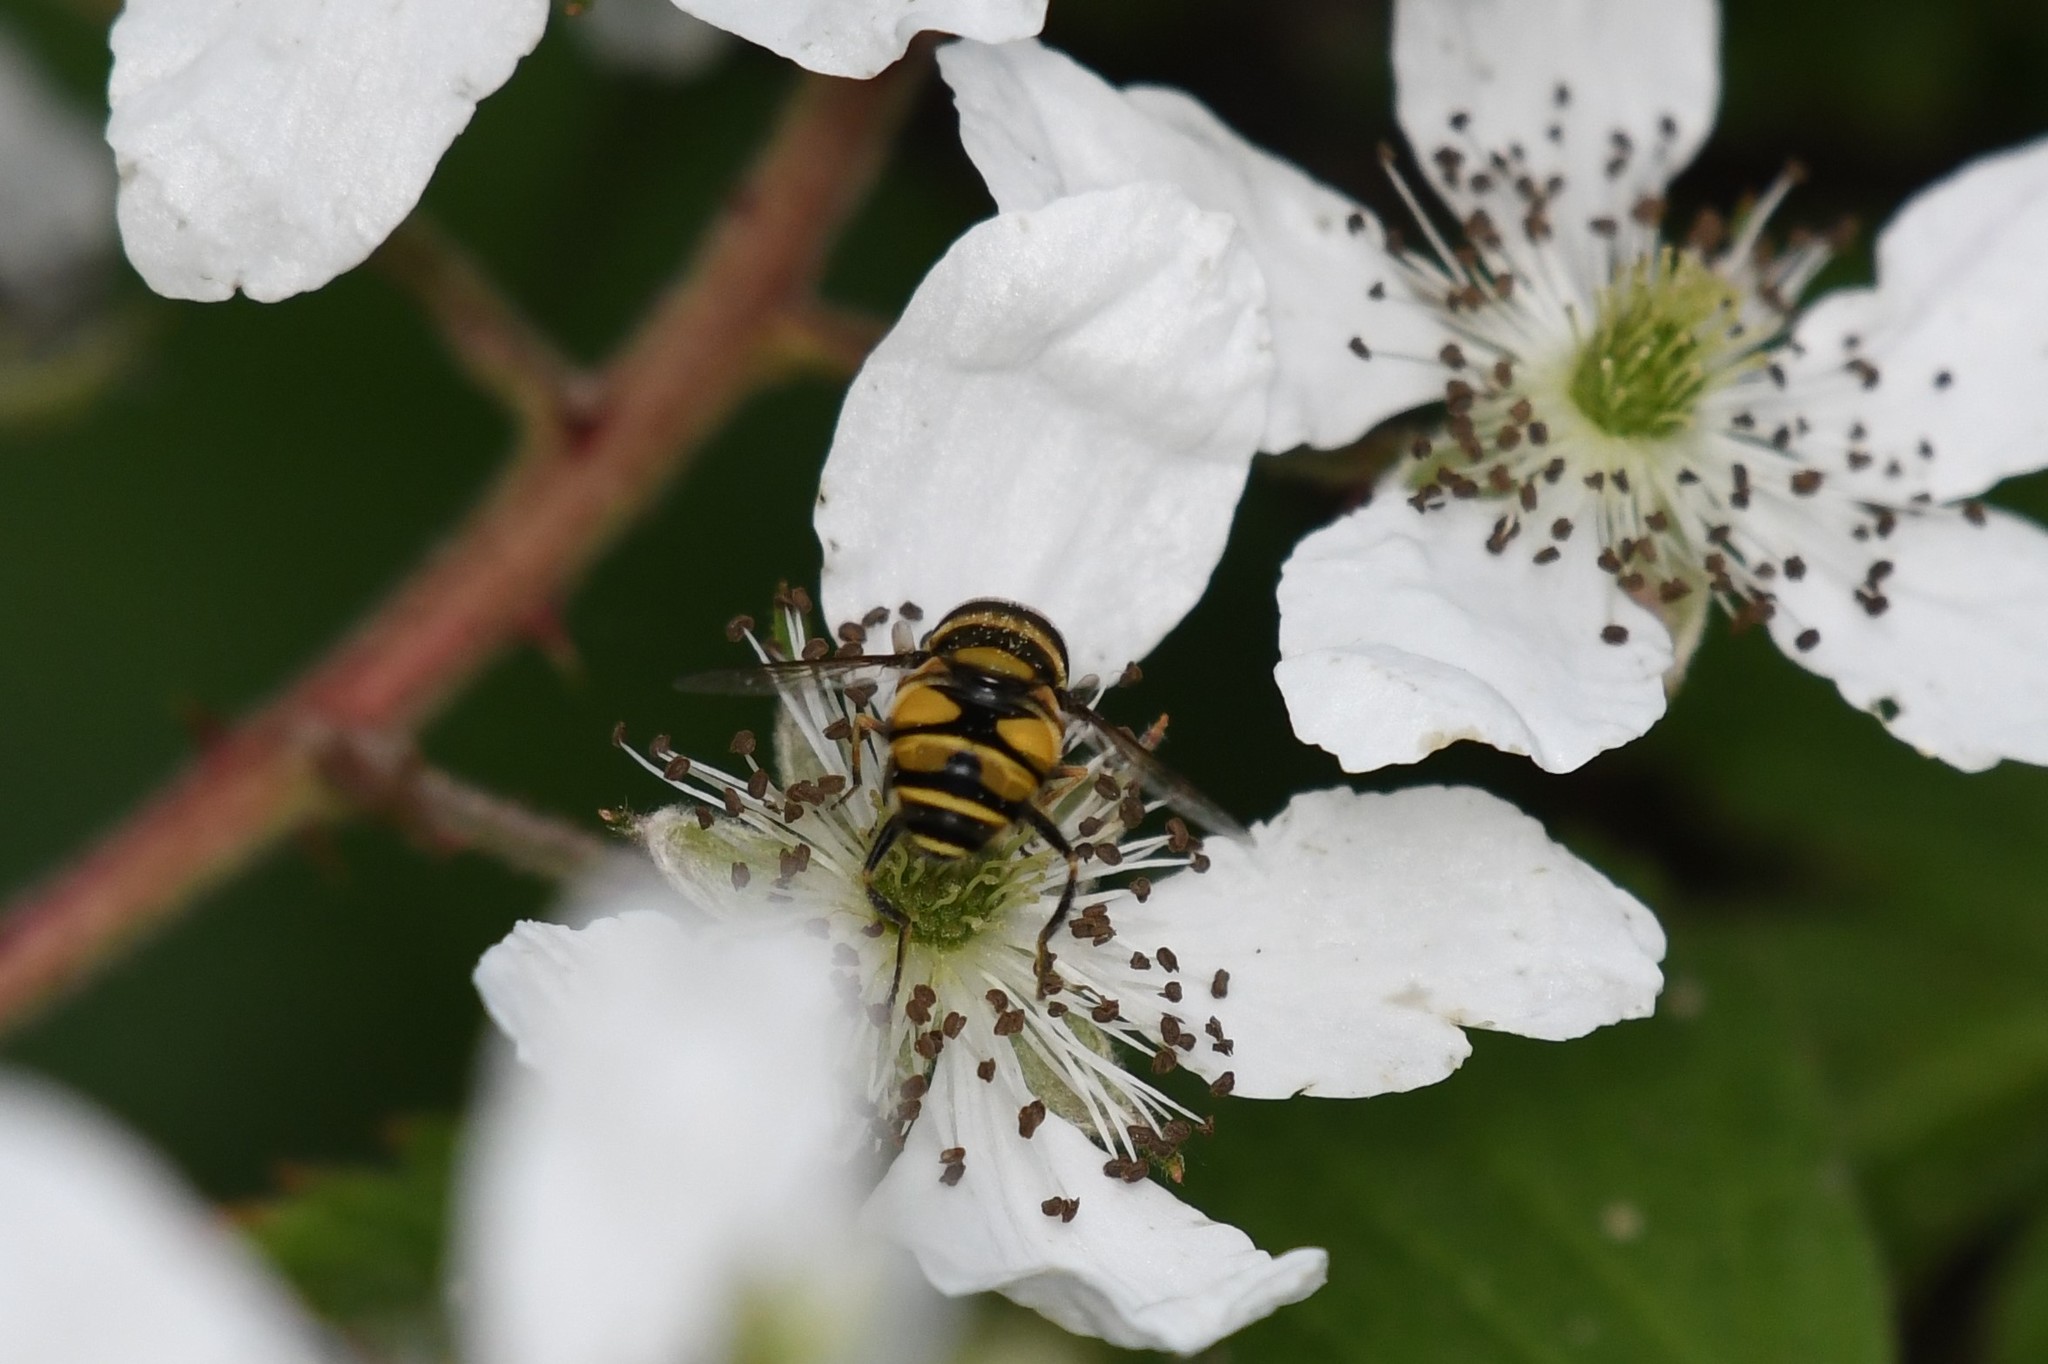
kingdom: Animalia
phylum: Arthropoda
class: Insecta
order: Diptera
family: Syrphidae
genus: Eristalis
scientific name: Eristalis transversa
